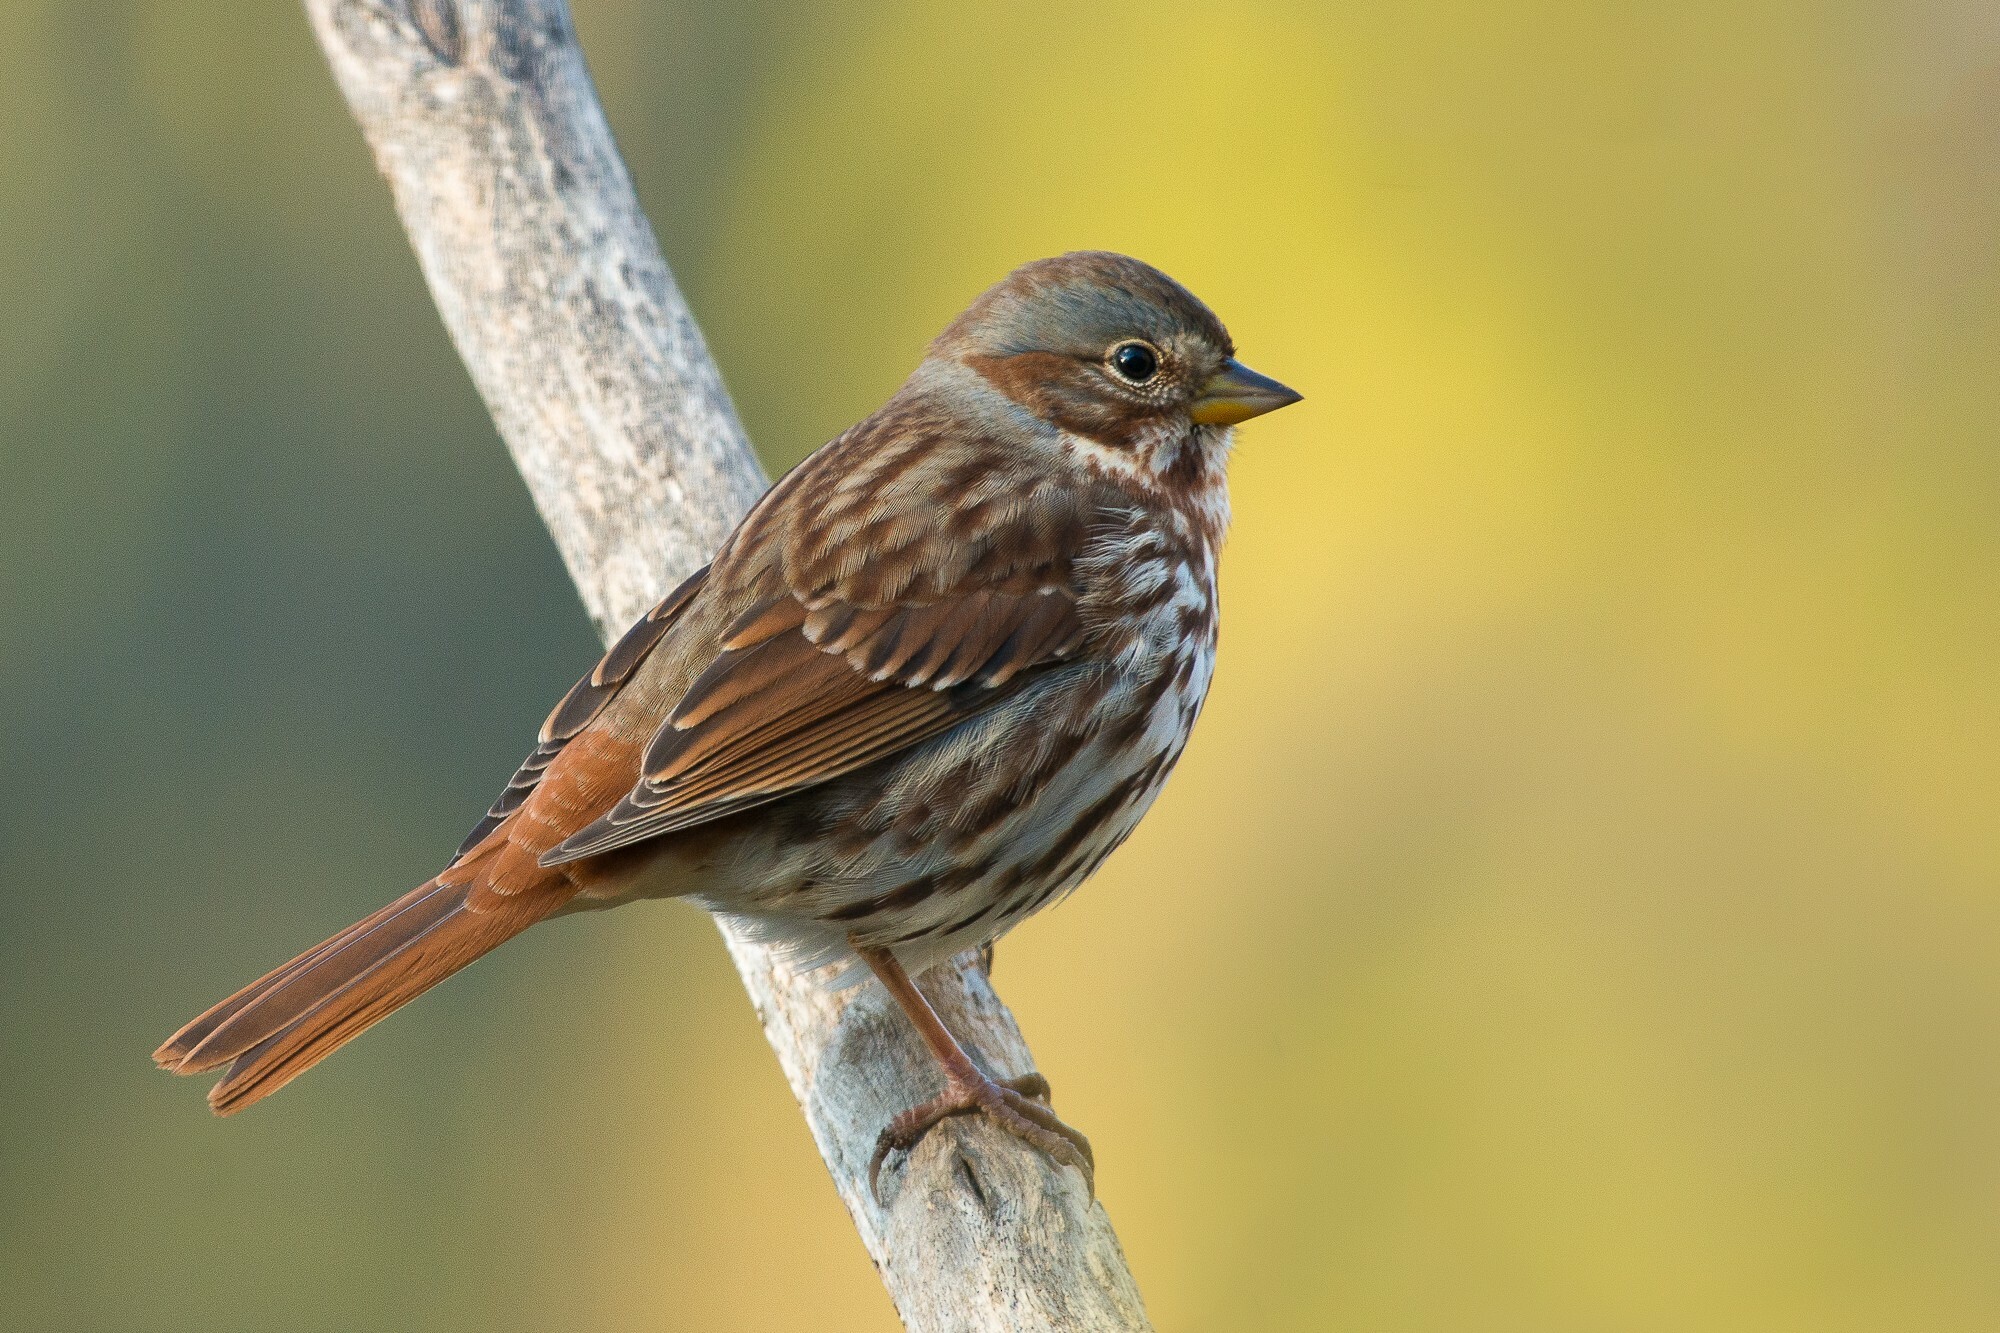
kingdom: Animalia
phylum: Chordata
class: Aves
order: Passeriformes
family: Passerellidae
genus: Passerella
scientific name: Passerella iliaca
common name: Fox sparrow
